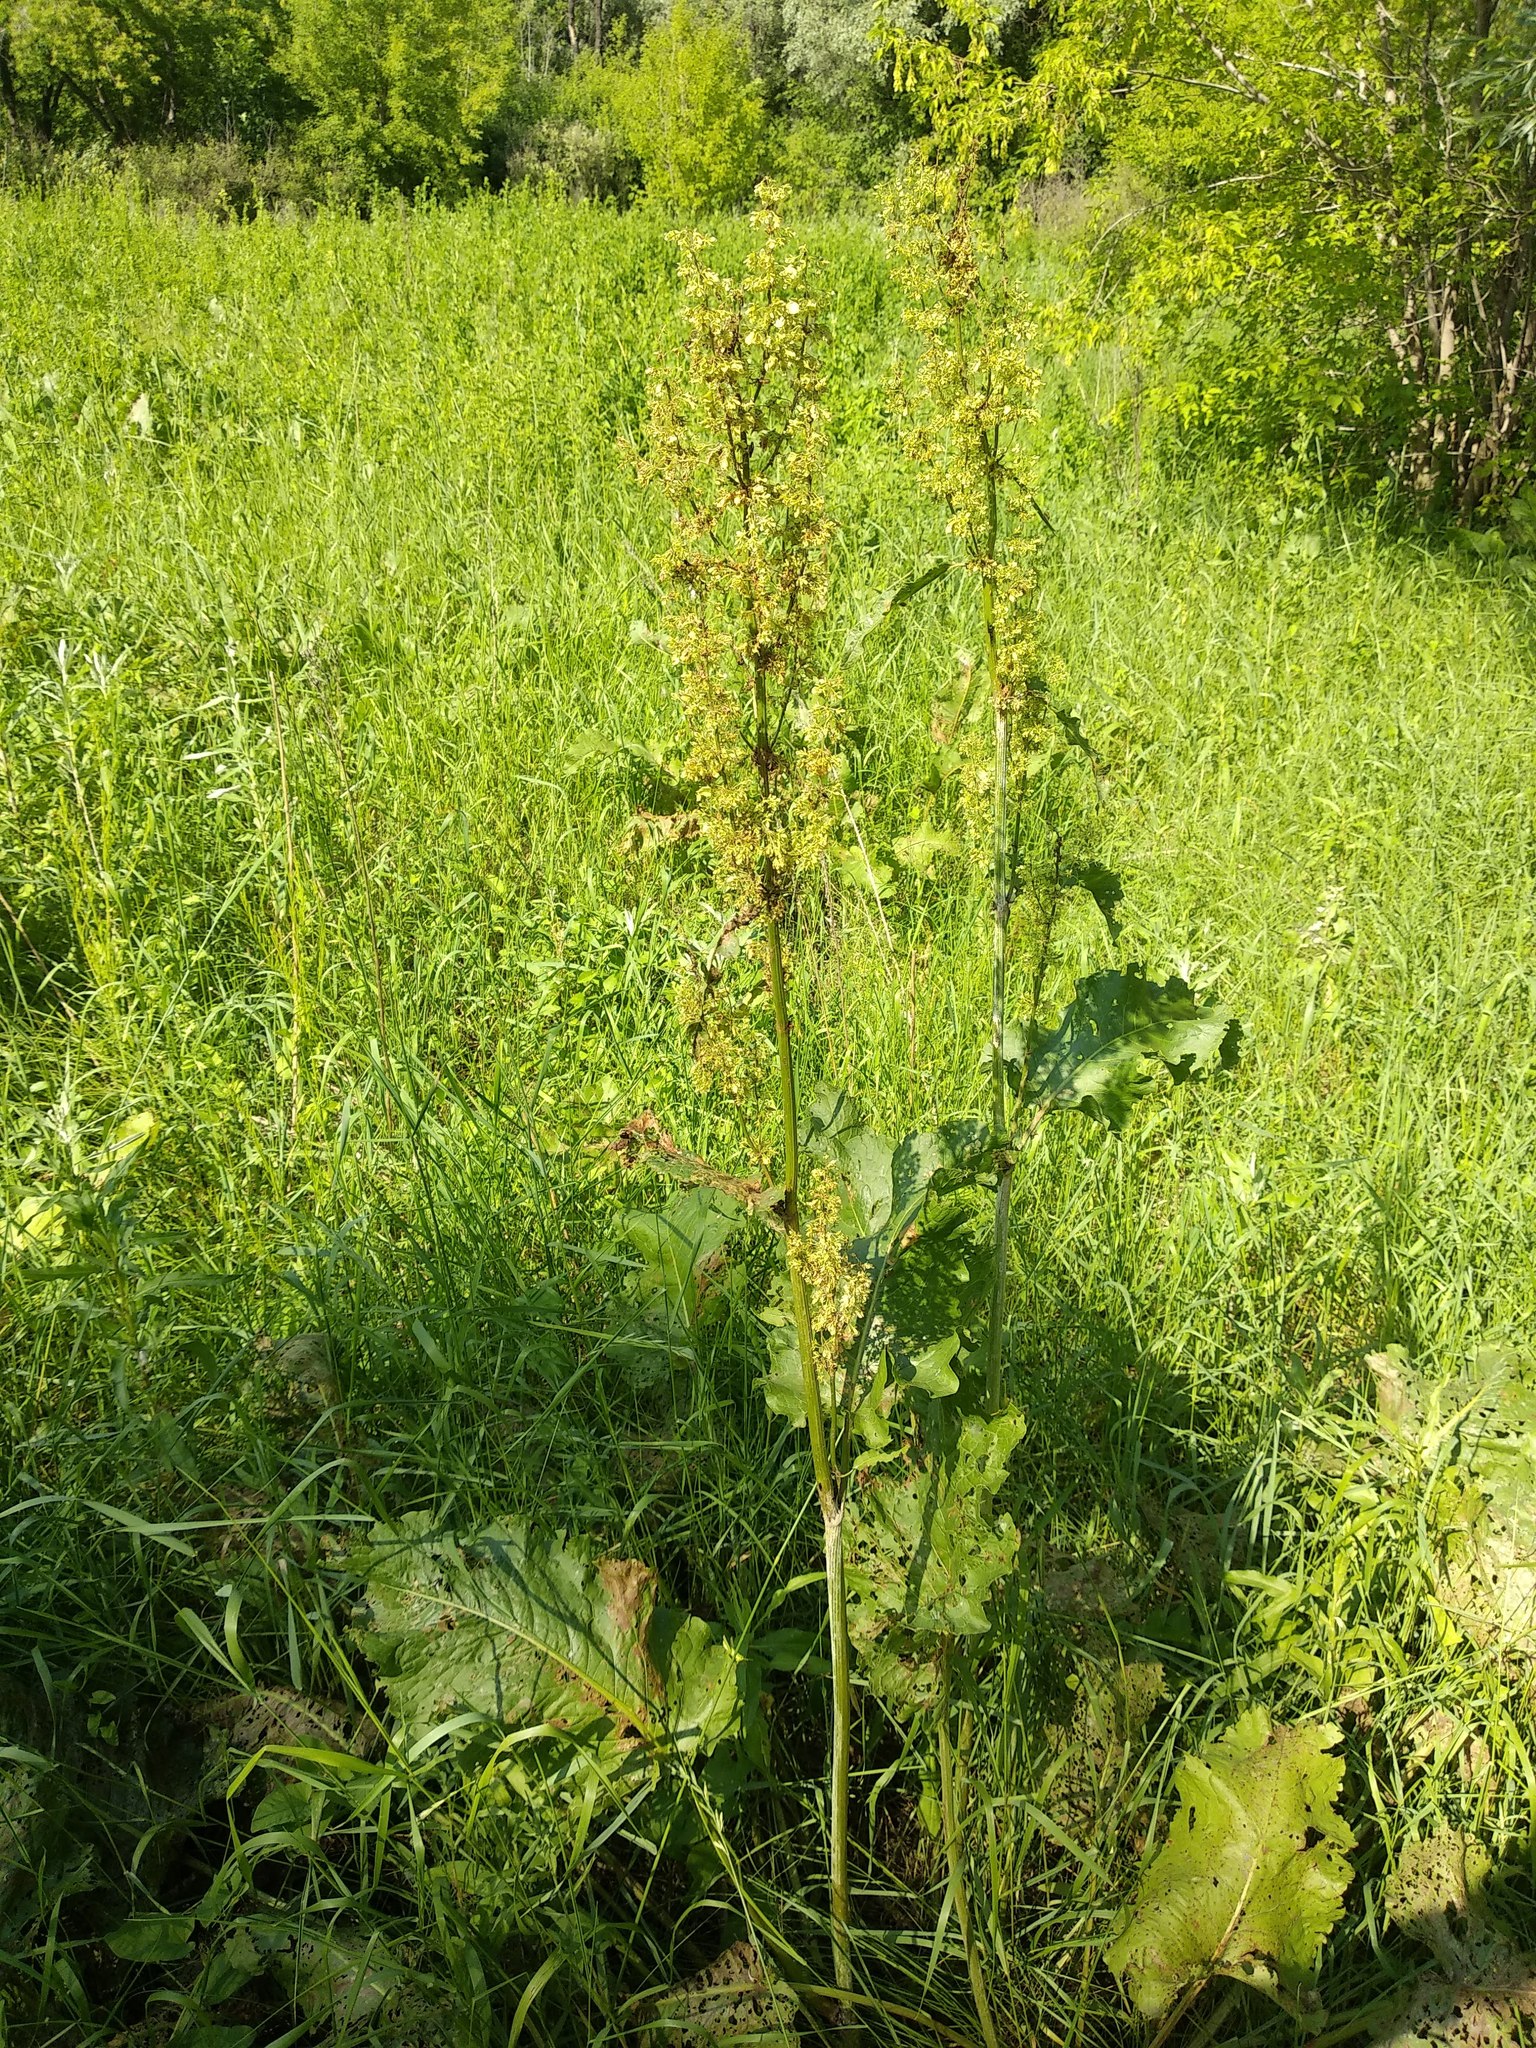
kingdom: Plantae
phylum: Tracheophyta
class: Magnoliopsida
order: Caryophyllales
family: Polygonaceae
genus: Rumex
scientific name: Rumex confertus
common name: Russian dock
